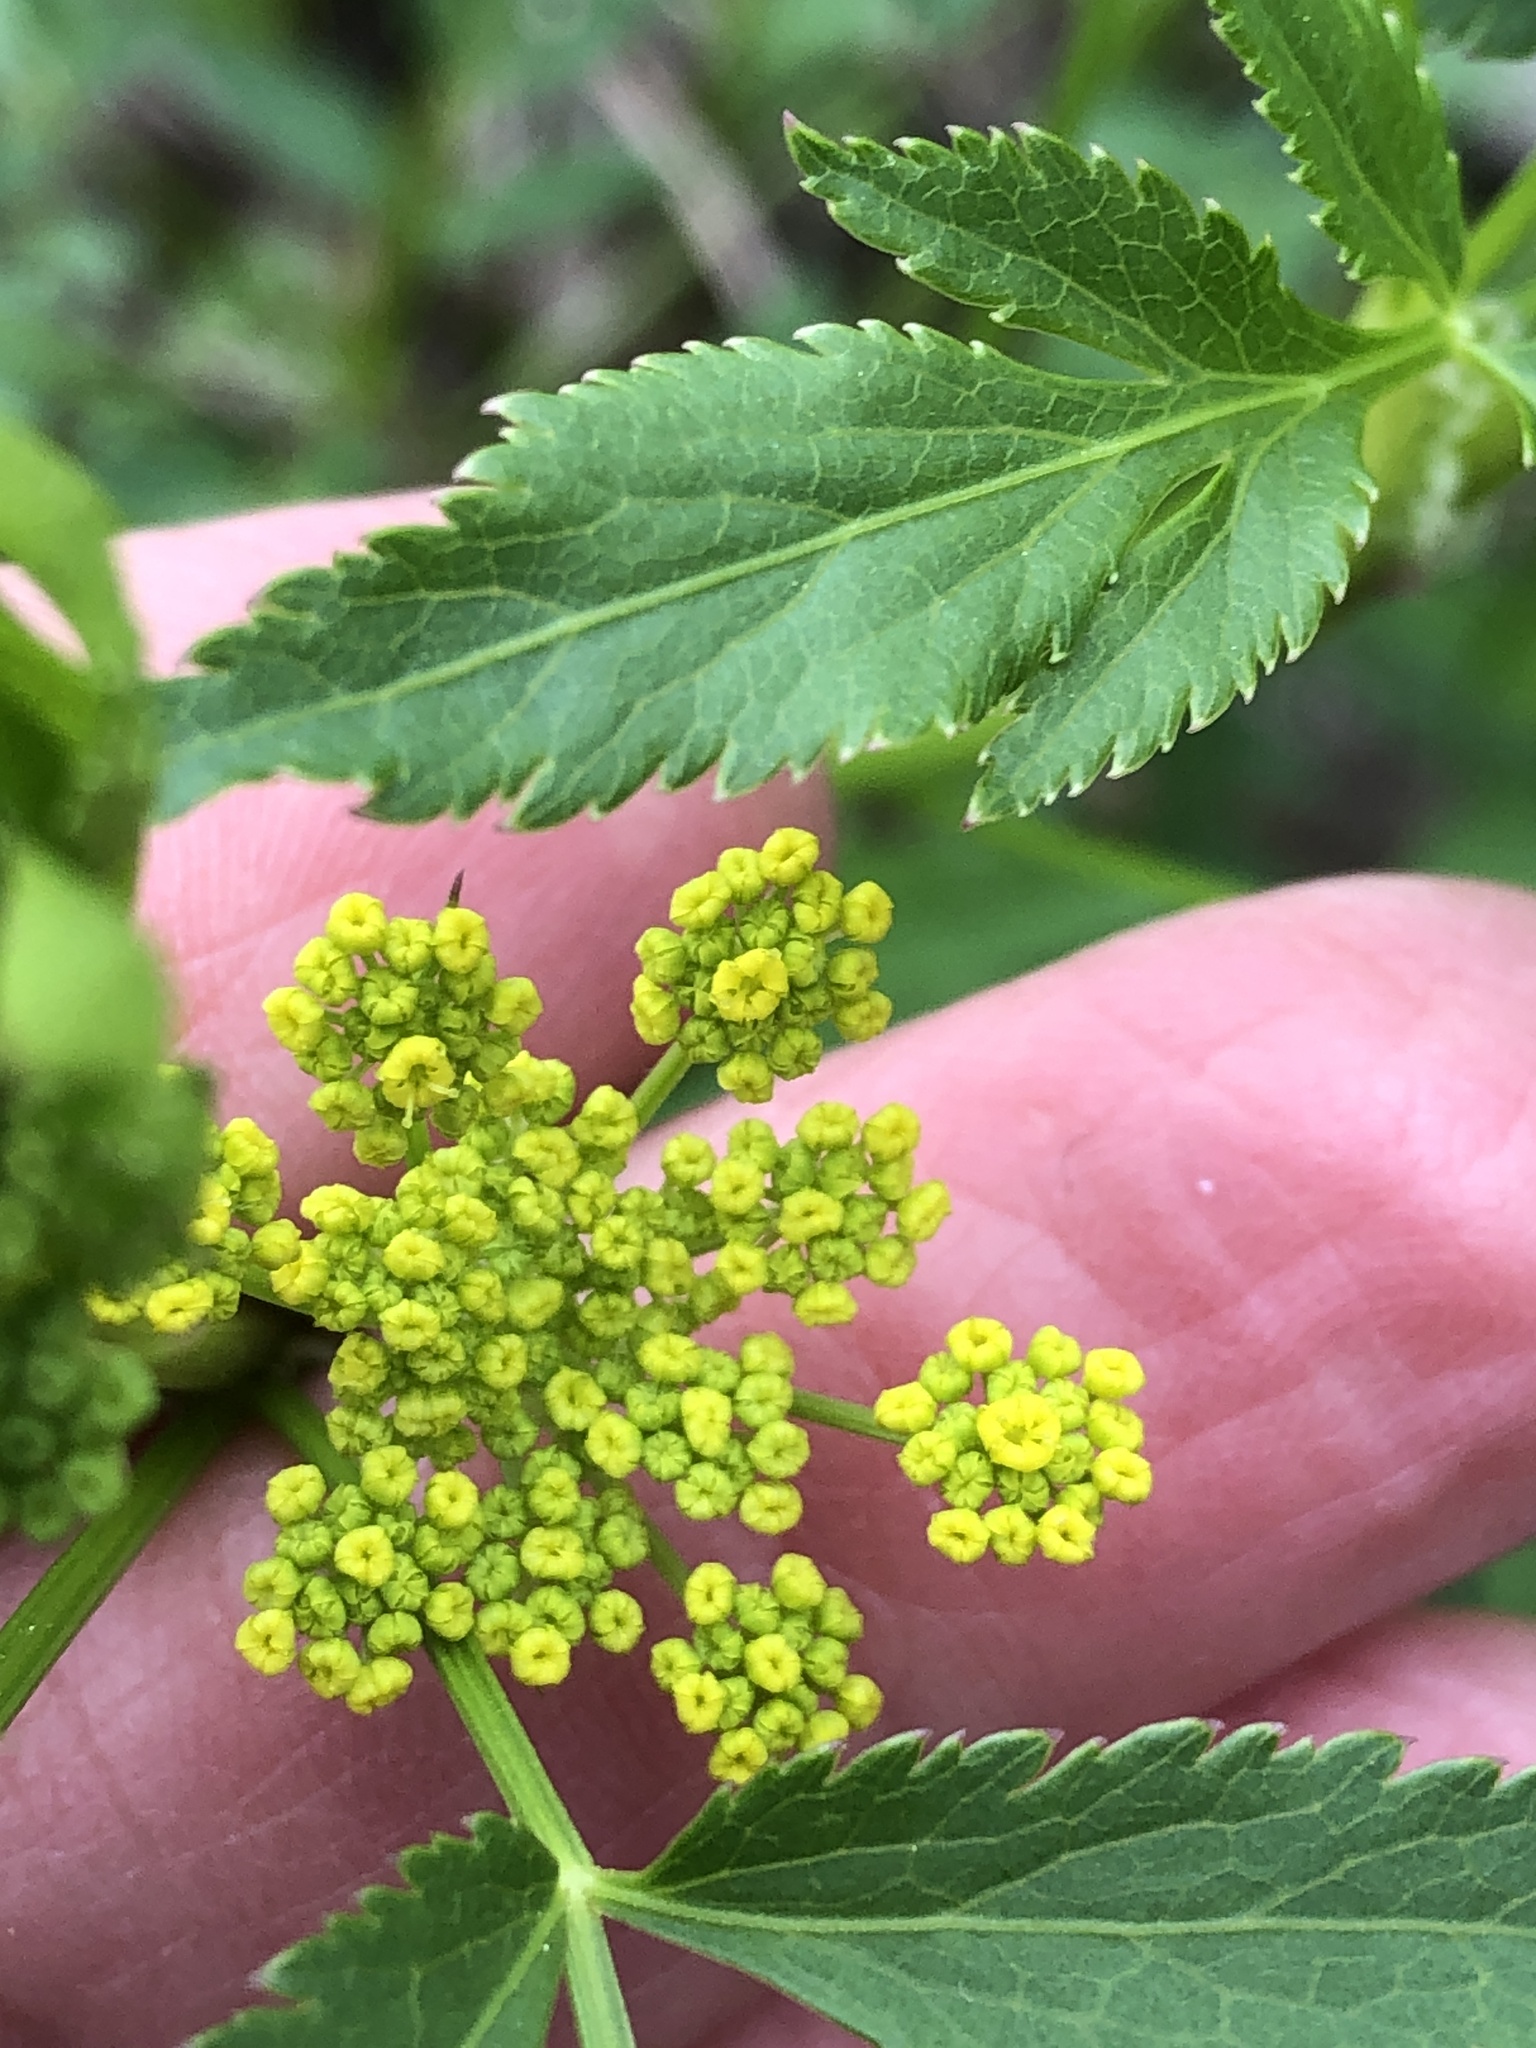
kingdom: Plantae
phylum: Tracheophyta
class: Magnoliopsida
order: Apiales
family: Apiaceae
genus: Zizia
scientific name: Zizia aurea
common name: Golden alexanders
